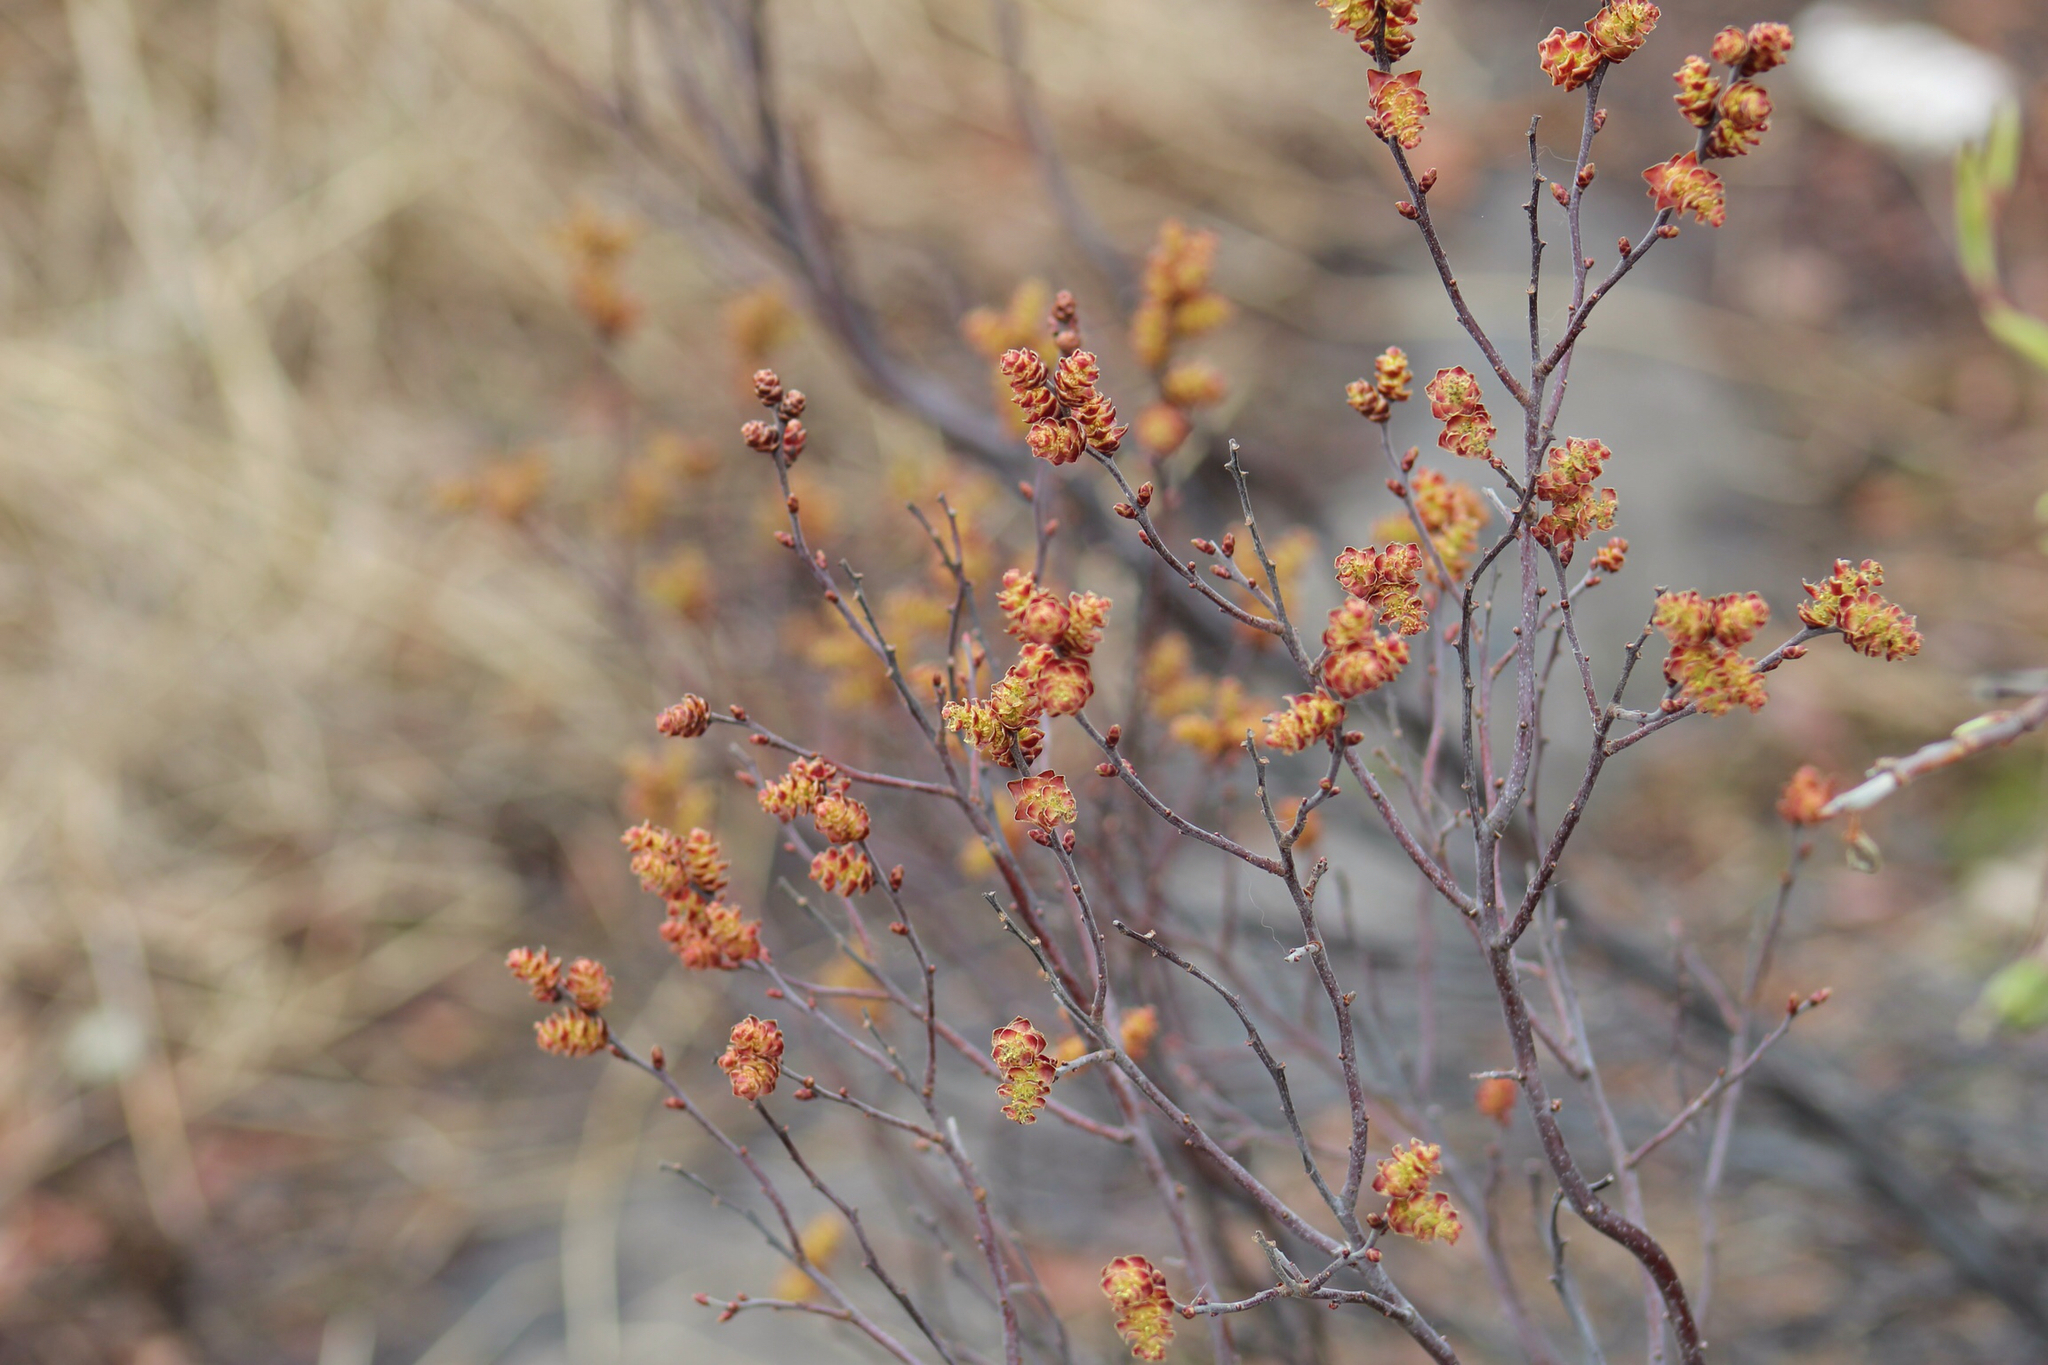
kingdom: Plantae
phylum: Tracheophyta
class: Magnoliopsida
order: Fagales
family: Myricaceae
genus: Myrica
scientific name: Myrica gale
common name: Sweet gale
